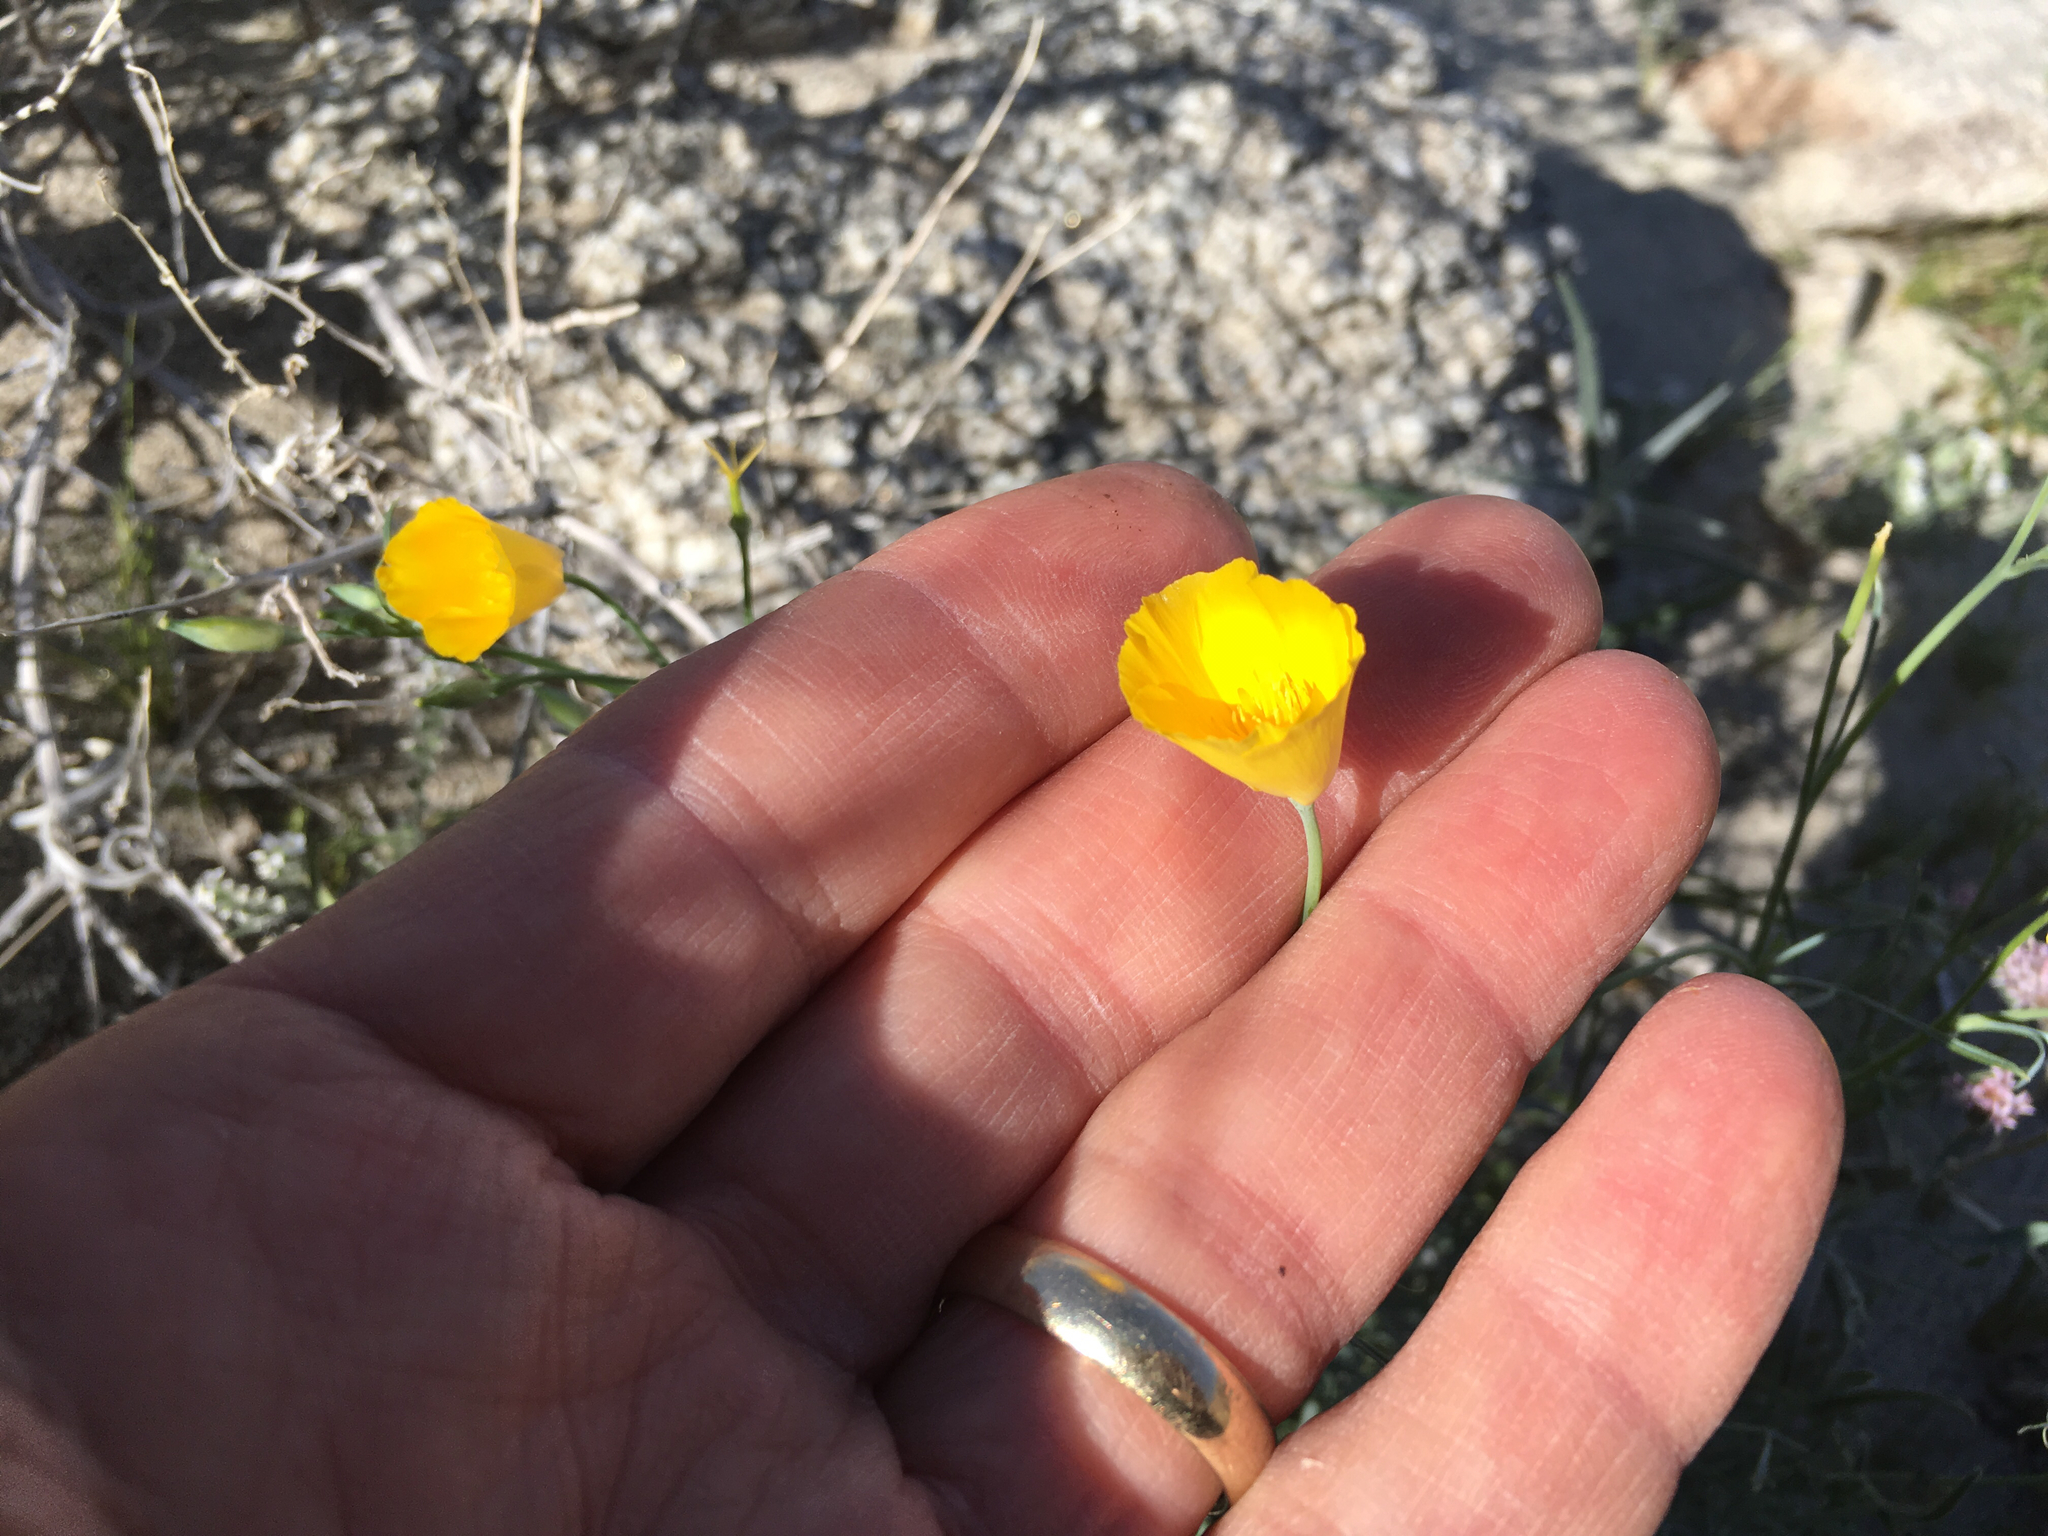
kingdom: Plantae
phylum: Tracheophyta
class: Magnoliopsida
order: Ranunculales
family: Papaveraceae
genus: Eschscholzia
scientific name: Eschscholzia parishii
